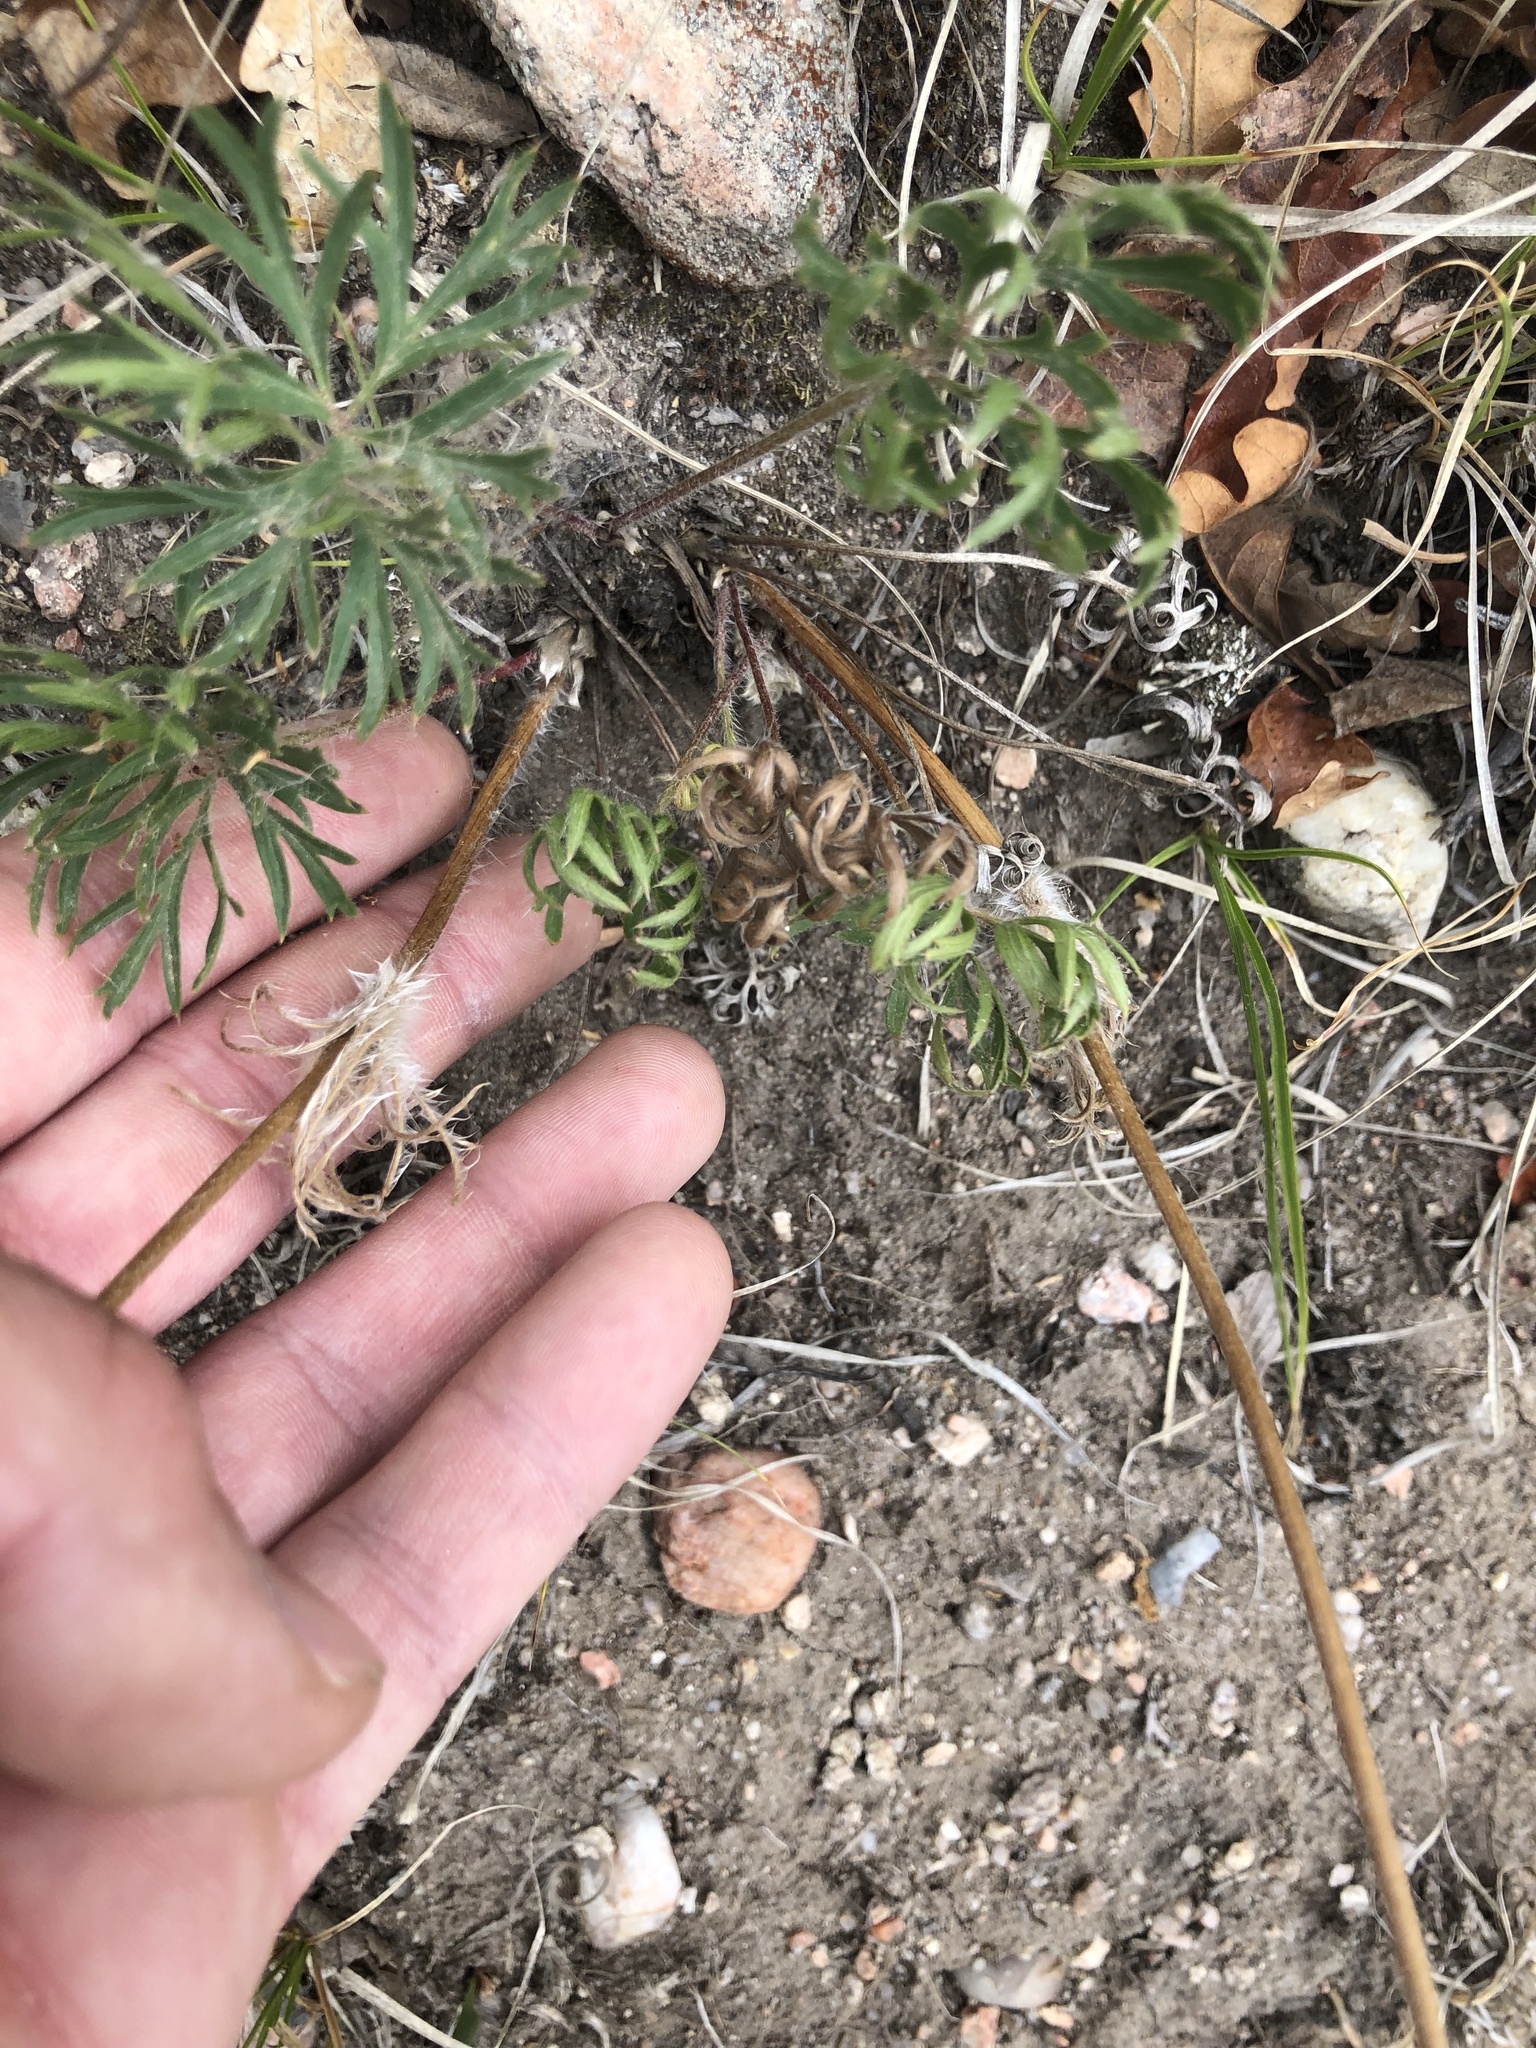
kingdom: Plantae
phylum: Tracheophyta
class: Magnoliopsida
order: Ranunculales
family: Ranunculaceae
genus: Pulsatilla
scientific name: Pulsatilla nuttalliana
